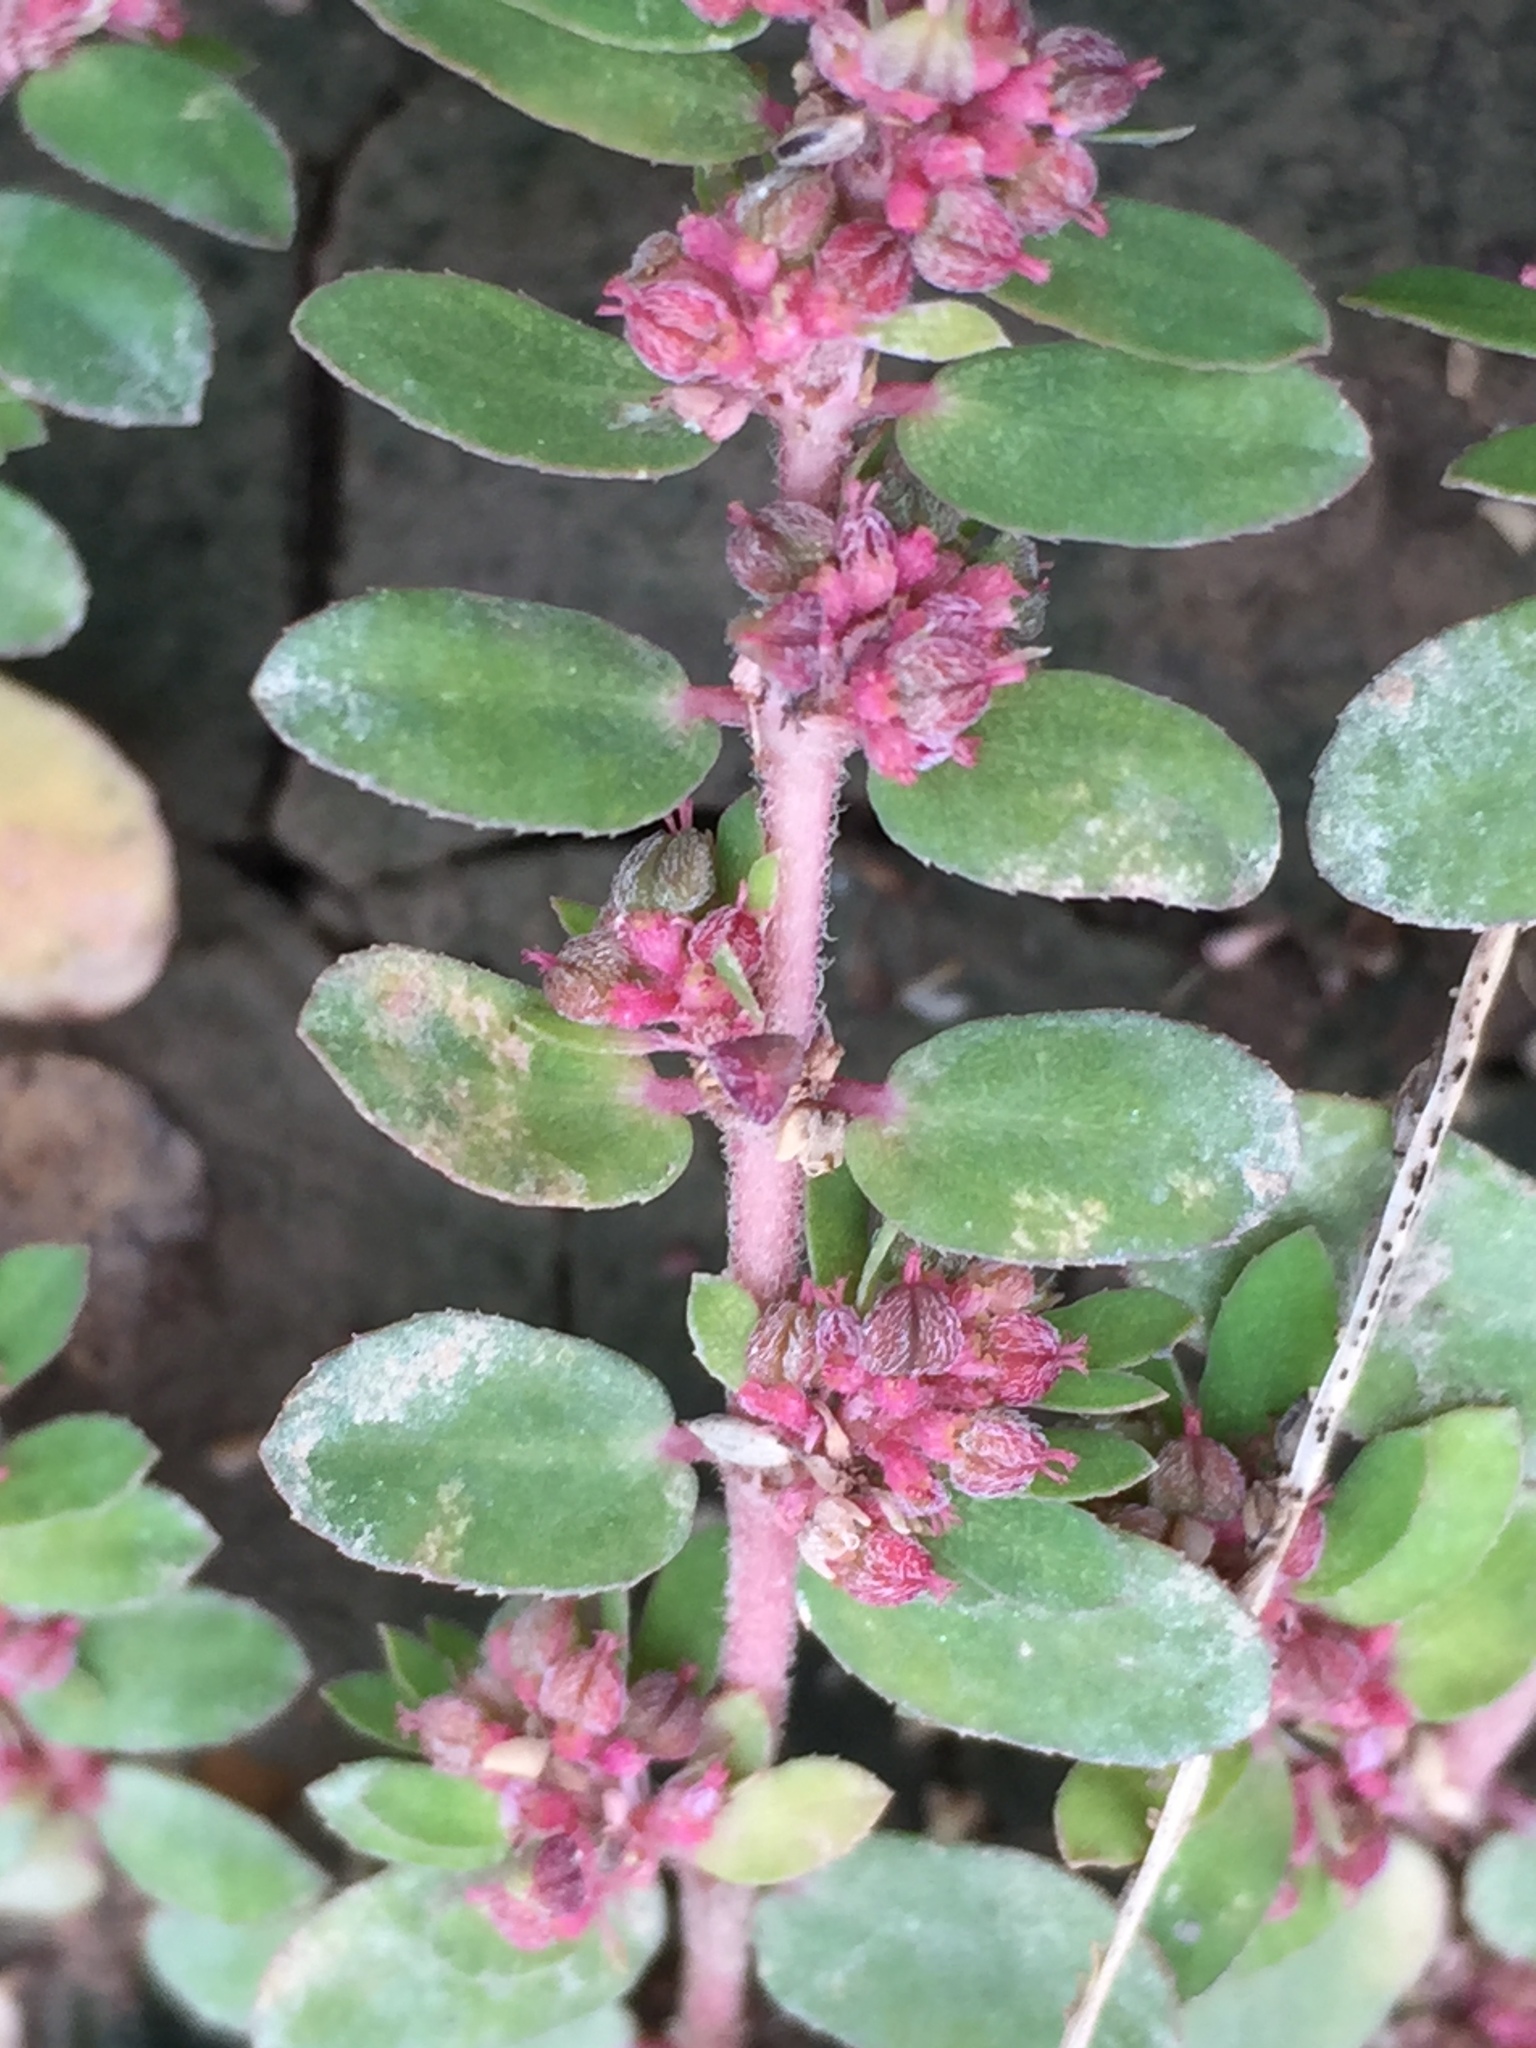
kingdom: Plantae
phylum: Tracheophyta
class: Magnoliopsida
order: Malpighiales
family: Euphorbiaceae
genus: Euphorbia
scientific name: Euphorbia humistrata
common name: Hairy spreading spurge
